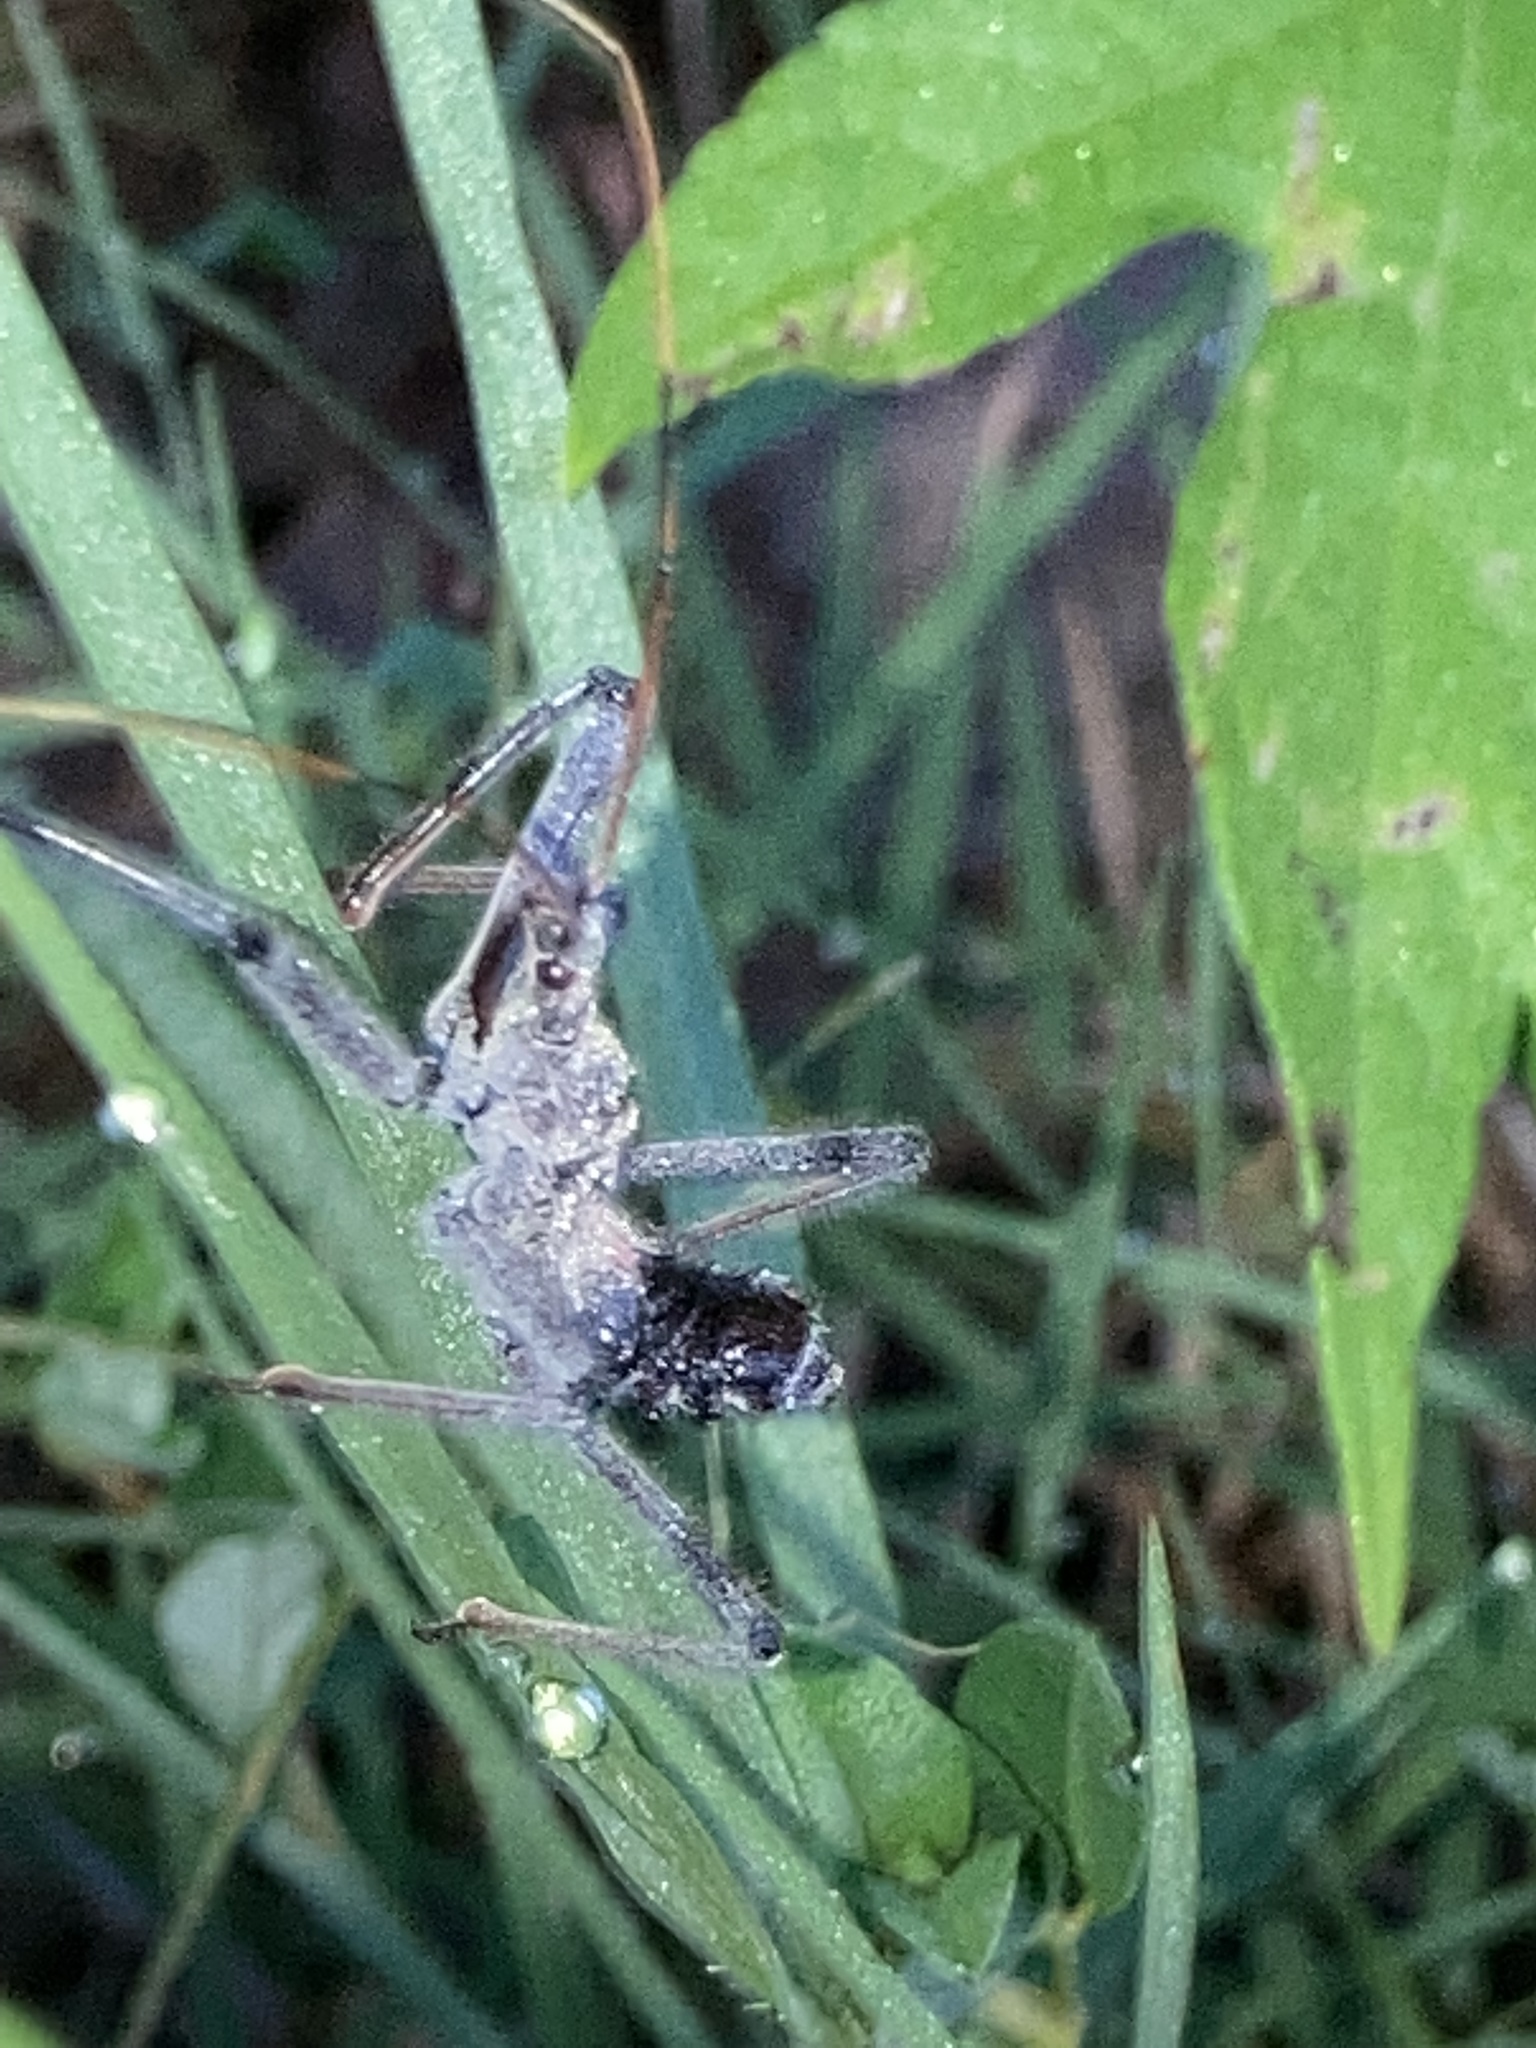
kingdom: Animalia
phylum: Arthropoda
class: Insecta
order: Hemiptera
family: Reduviidae
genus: Arilus
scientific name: Arilus cristatus
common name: North american wheel bug
